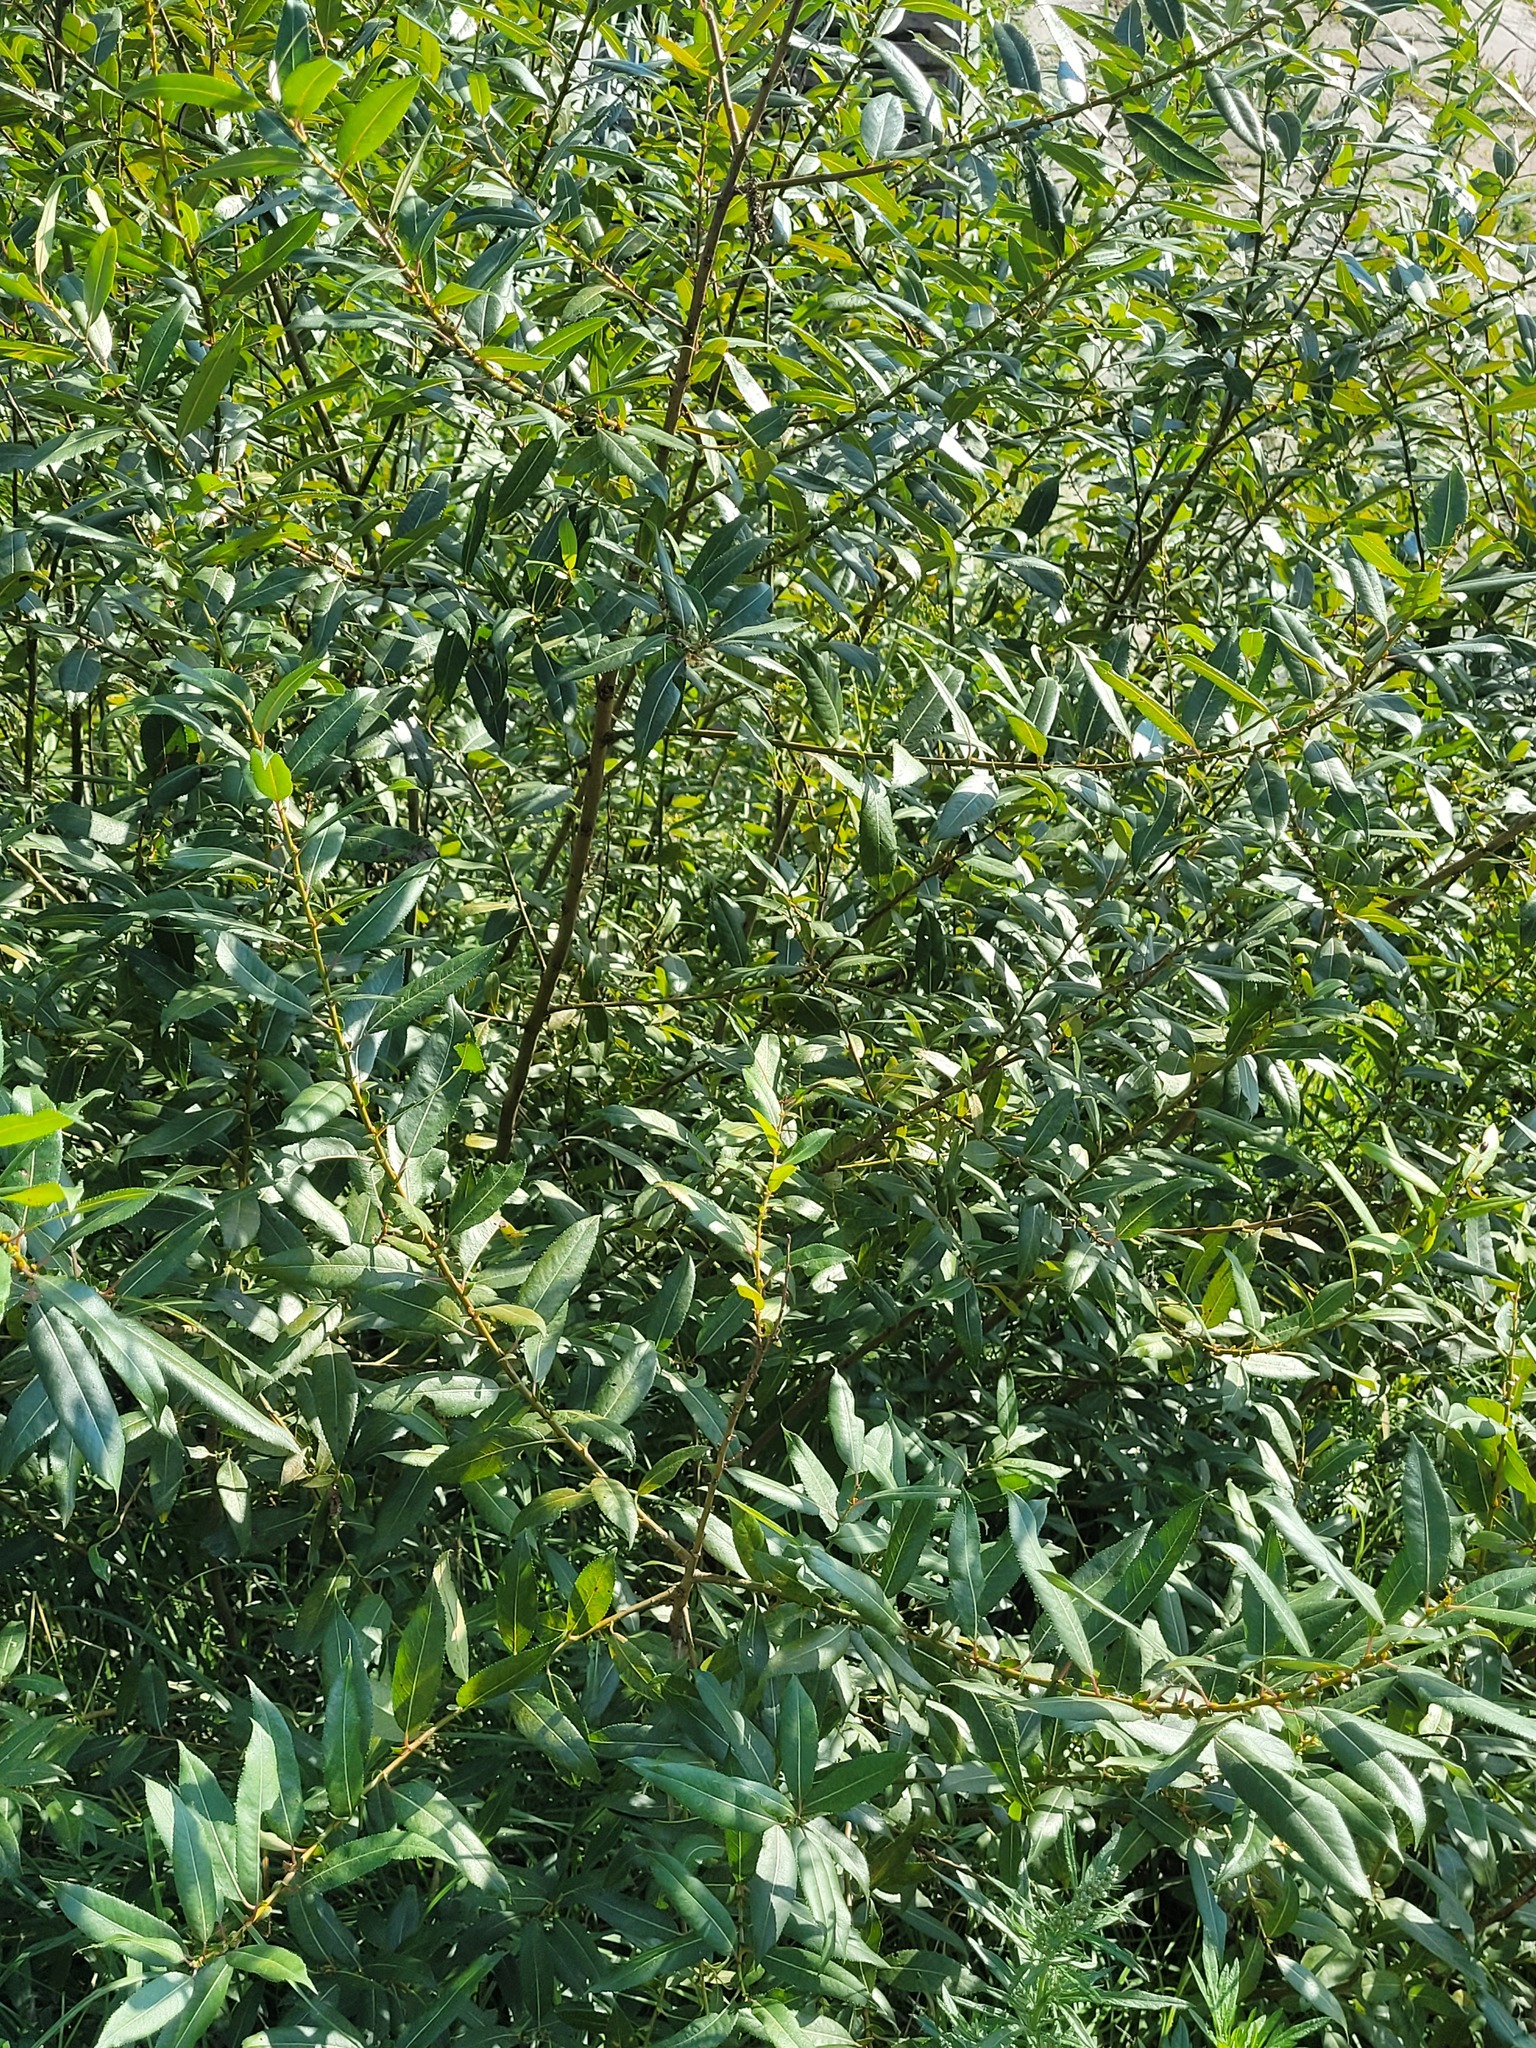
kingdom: Plantae
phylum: Tracheophyta
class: Magnoliopsida
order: Malpighiales
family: Salicaceae
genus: Salix
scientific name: Salix triandra
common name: Almond willow
